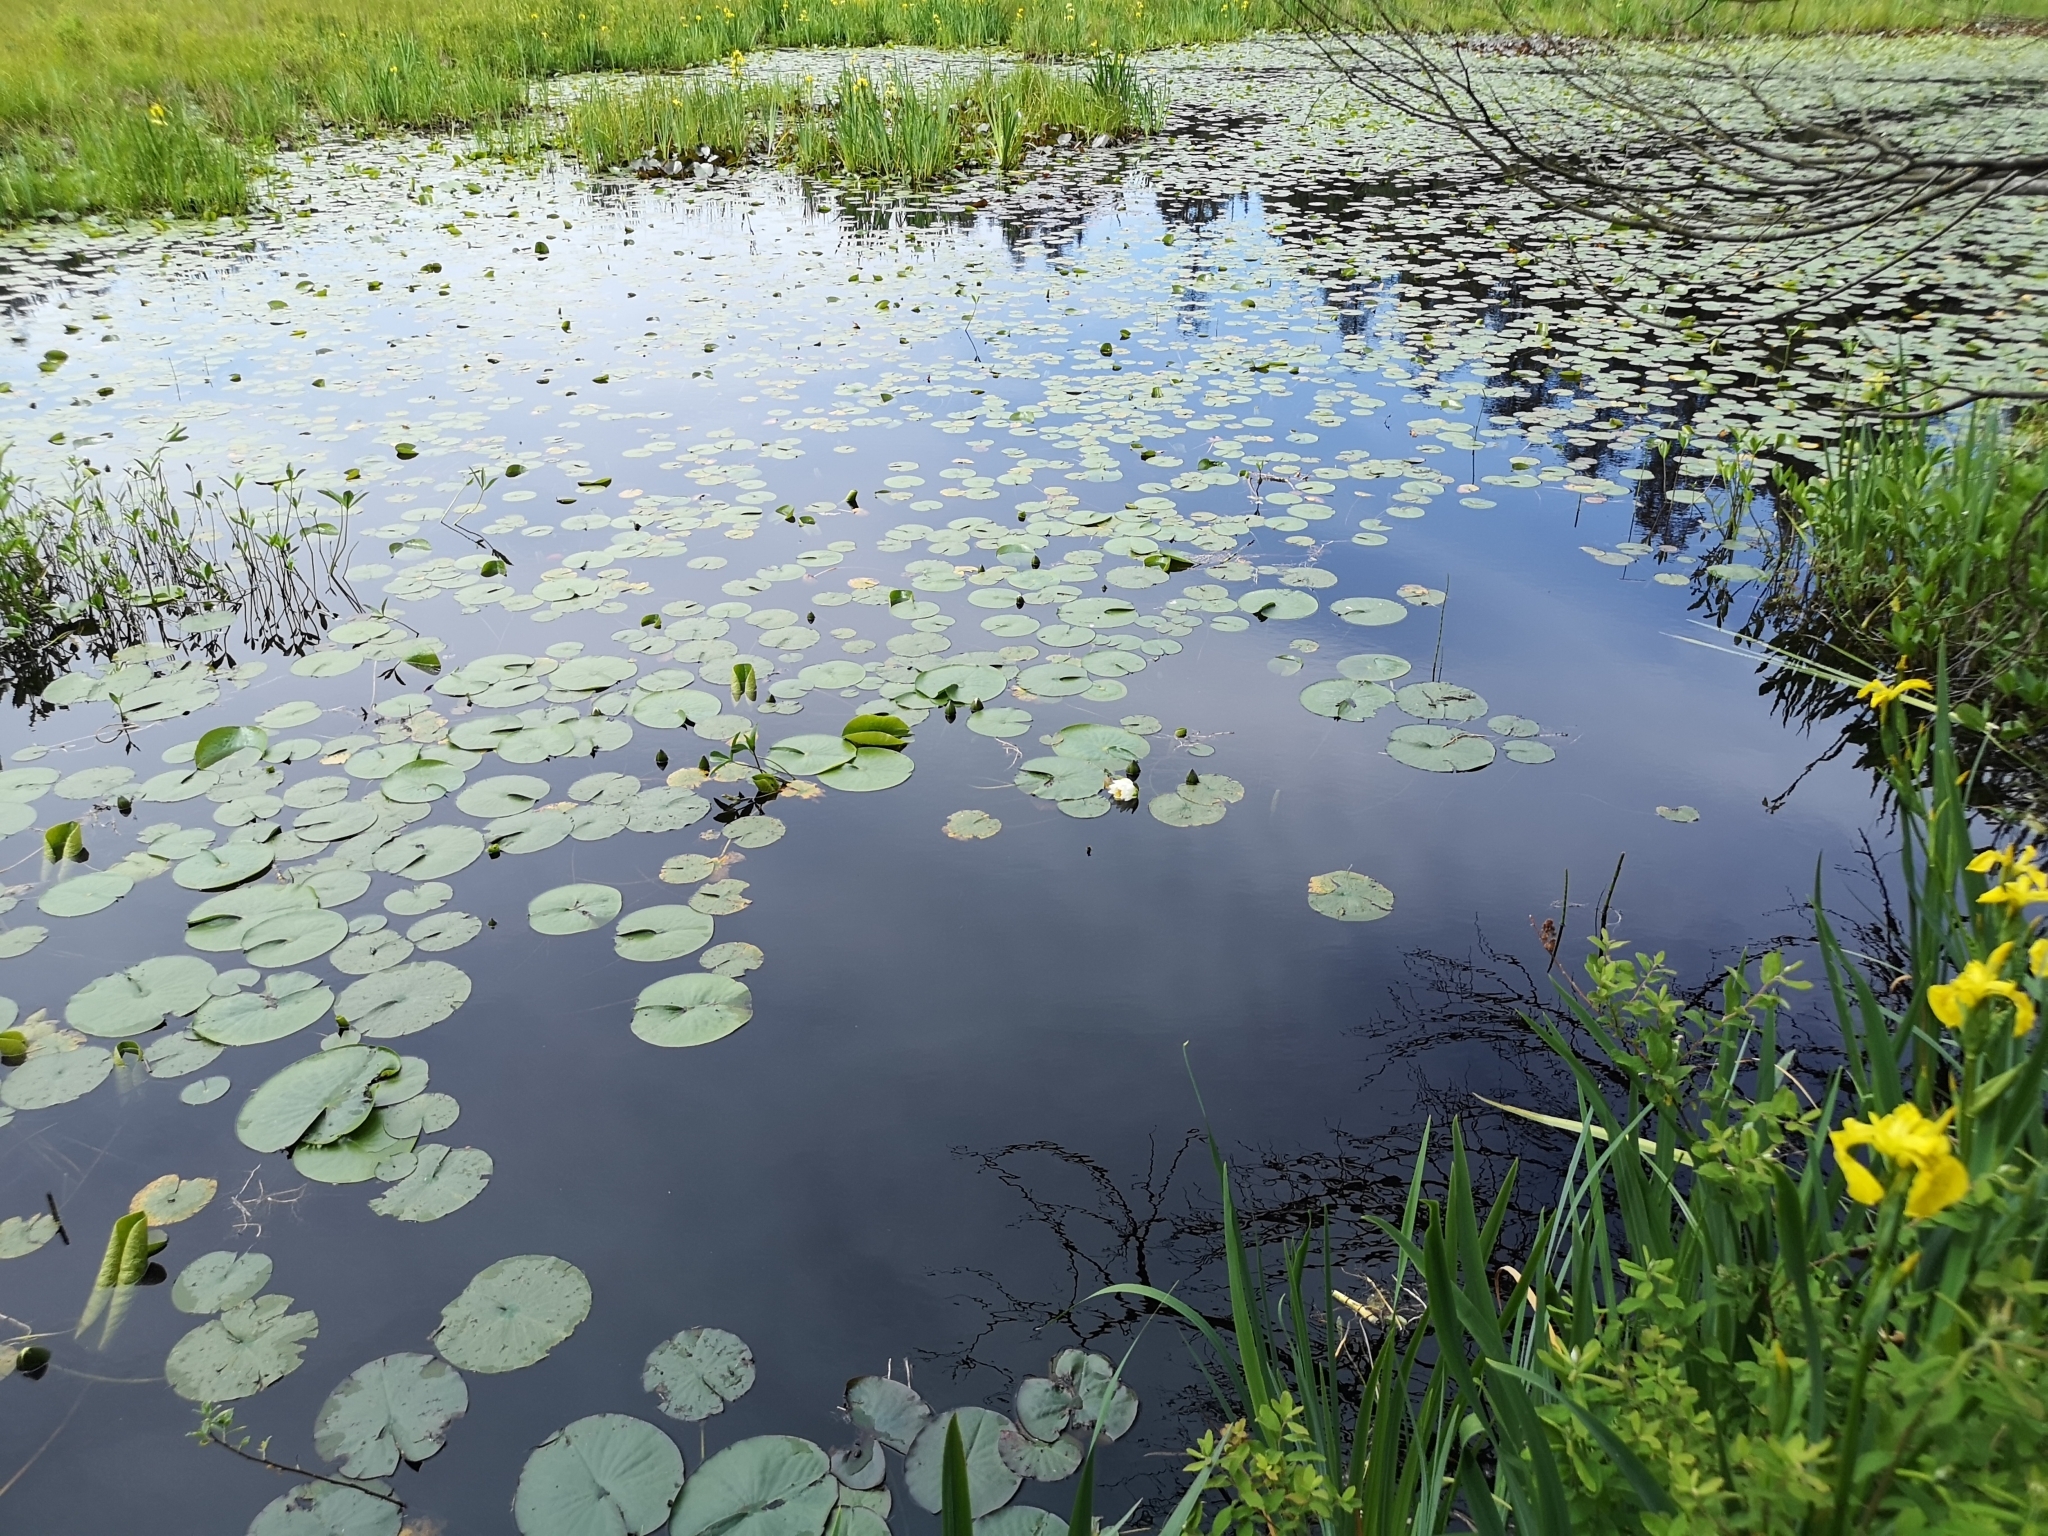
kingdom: Plantae
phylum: Tracheophyta
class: Magnoliopsida
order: Nymphaeales
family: Nymphaeaceae
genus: Nymphaea
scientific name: Nymphaea odorata
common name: Fragrant water-lily
